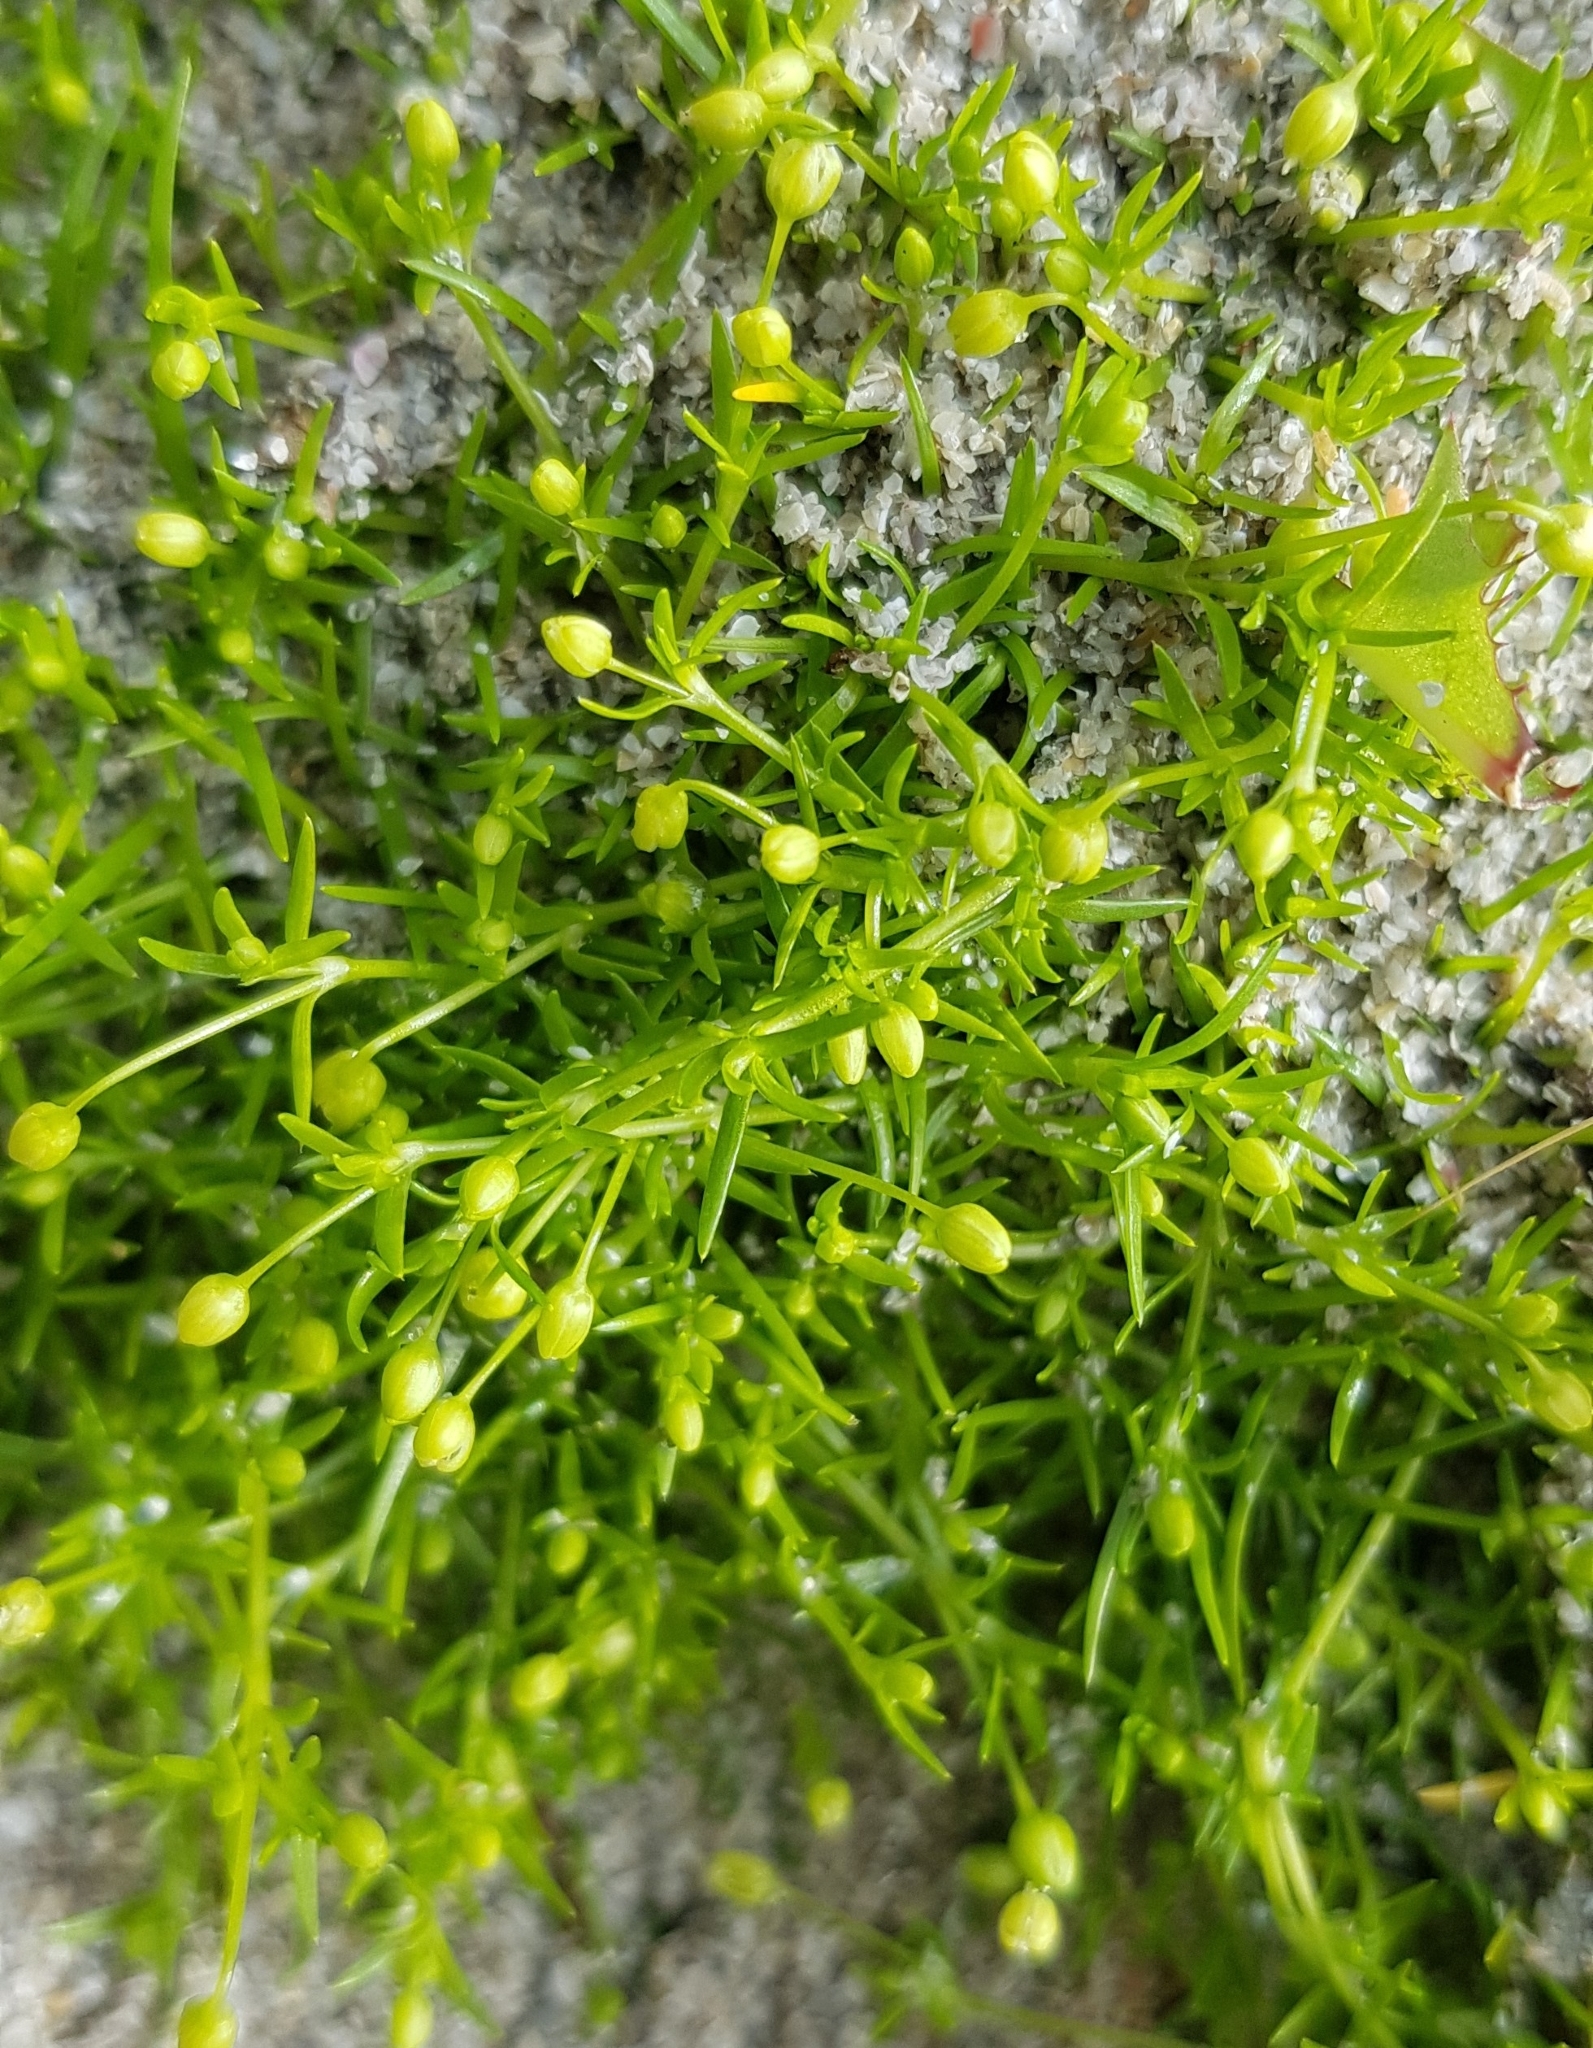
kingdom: Plantae
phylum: Tracheophyta
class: Magnoliopsida
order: Caryophyllales
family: Caryophyllaceae
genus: Sagina
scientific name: Sagina procumbens
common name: Procumbent pearlwort
